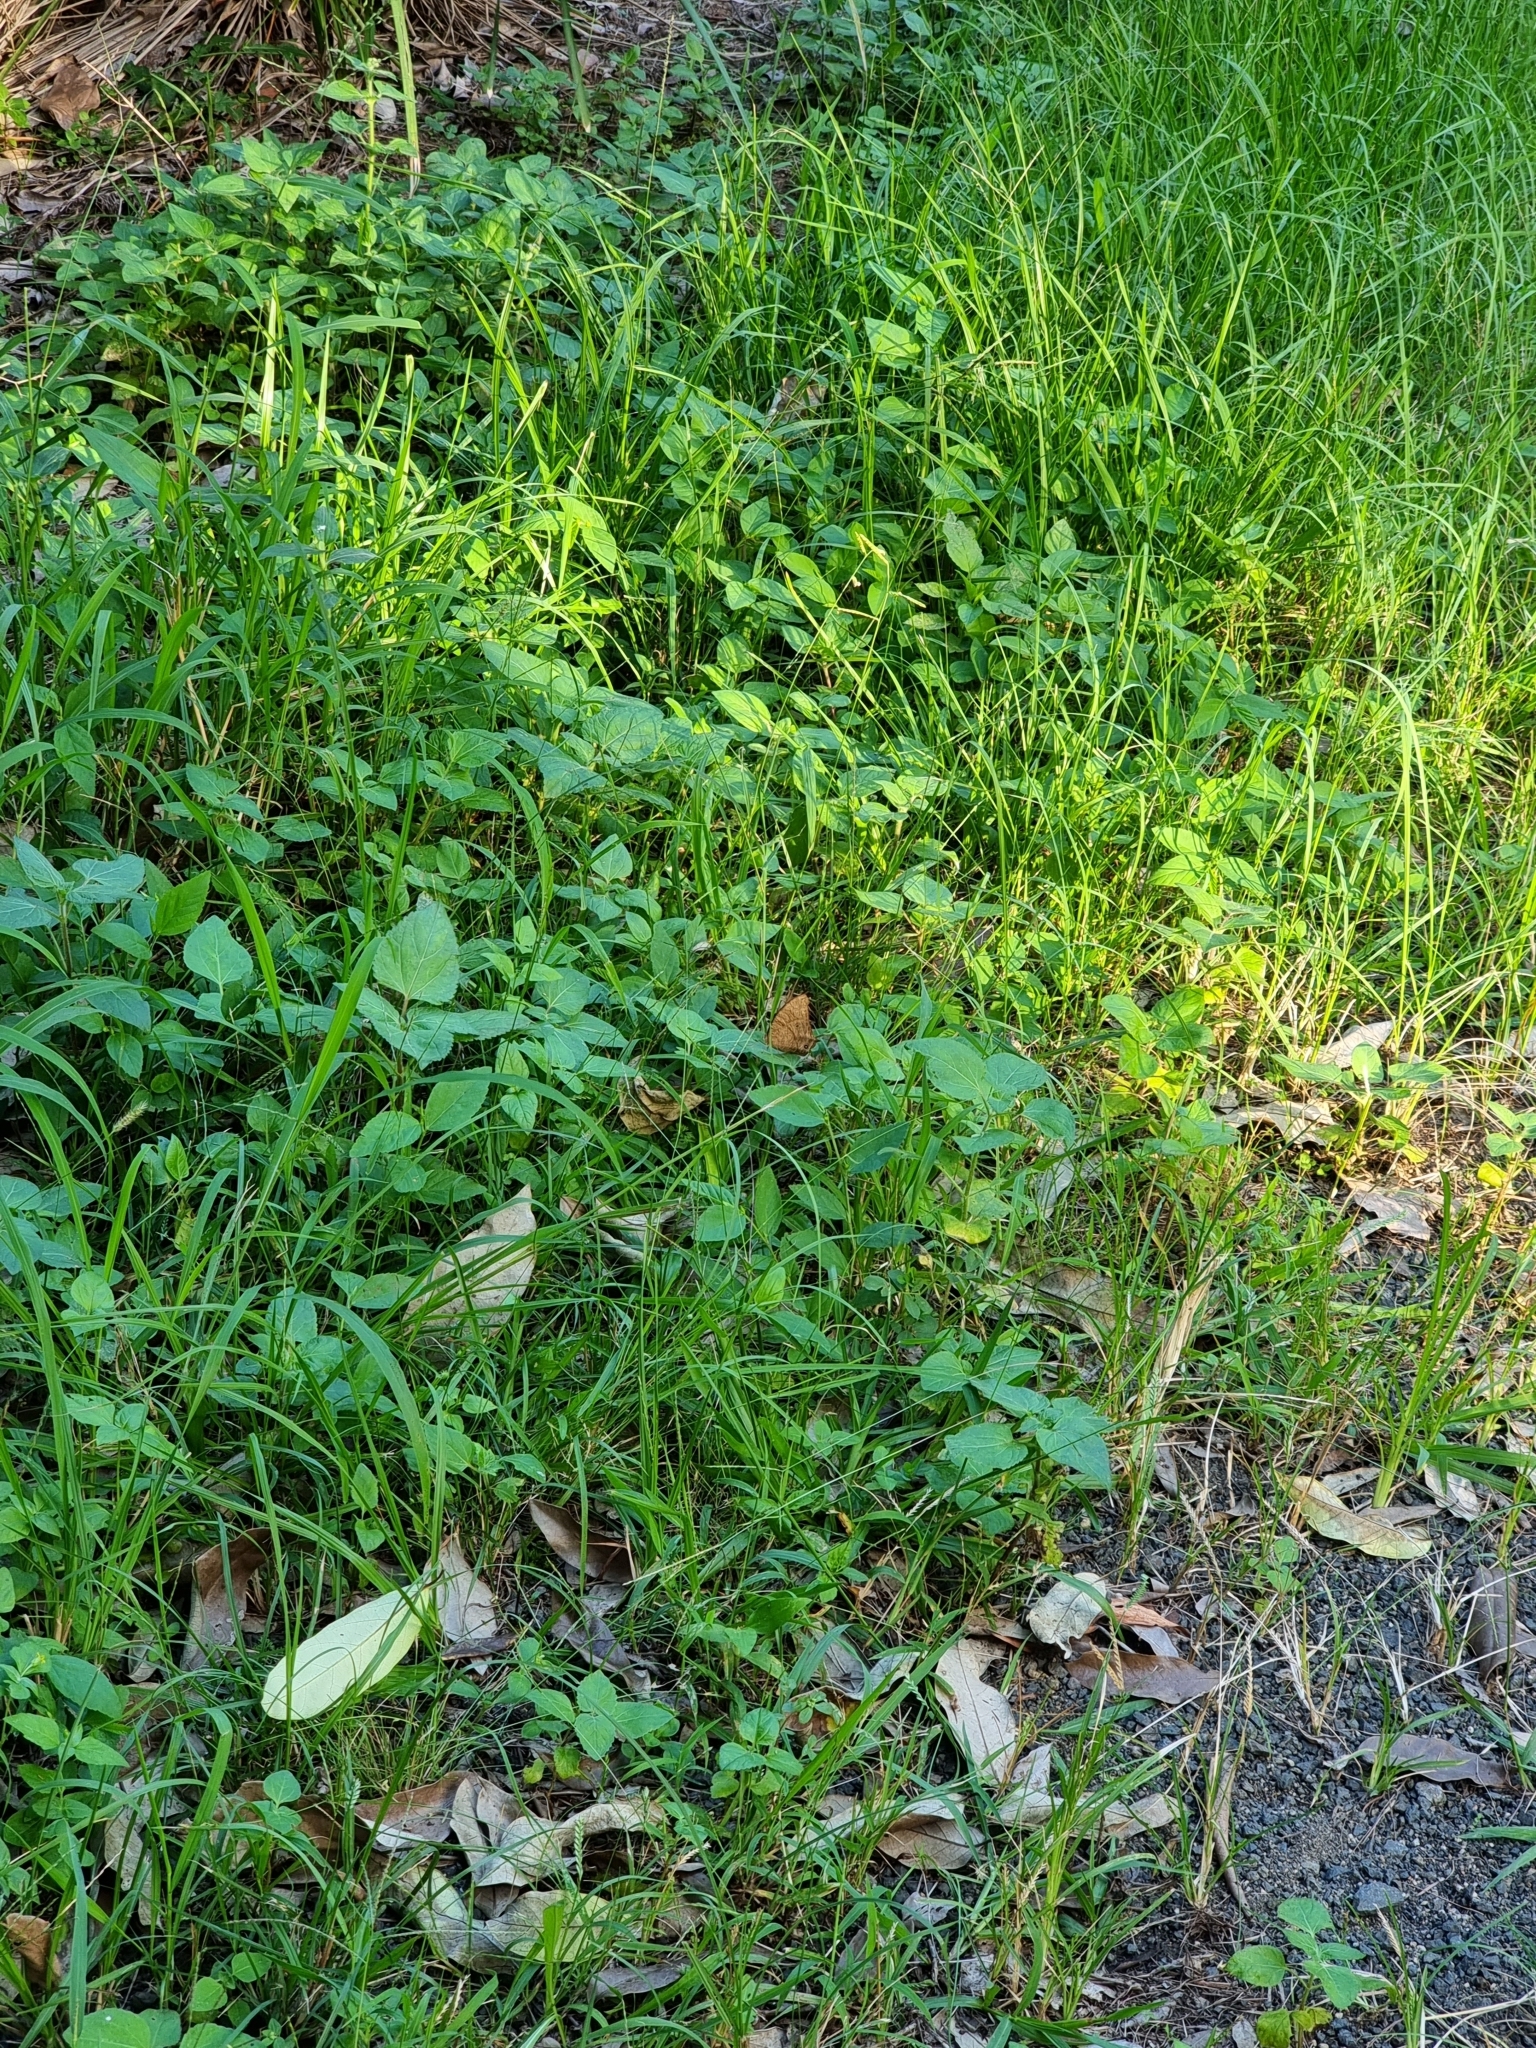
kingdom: Animalia
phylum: Arthropoda
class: Insecta
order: Lepidoptera
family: Nymphalidae
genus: Melanitis
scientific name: Melanitis leda
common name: Twilight brown
